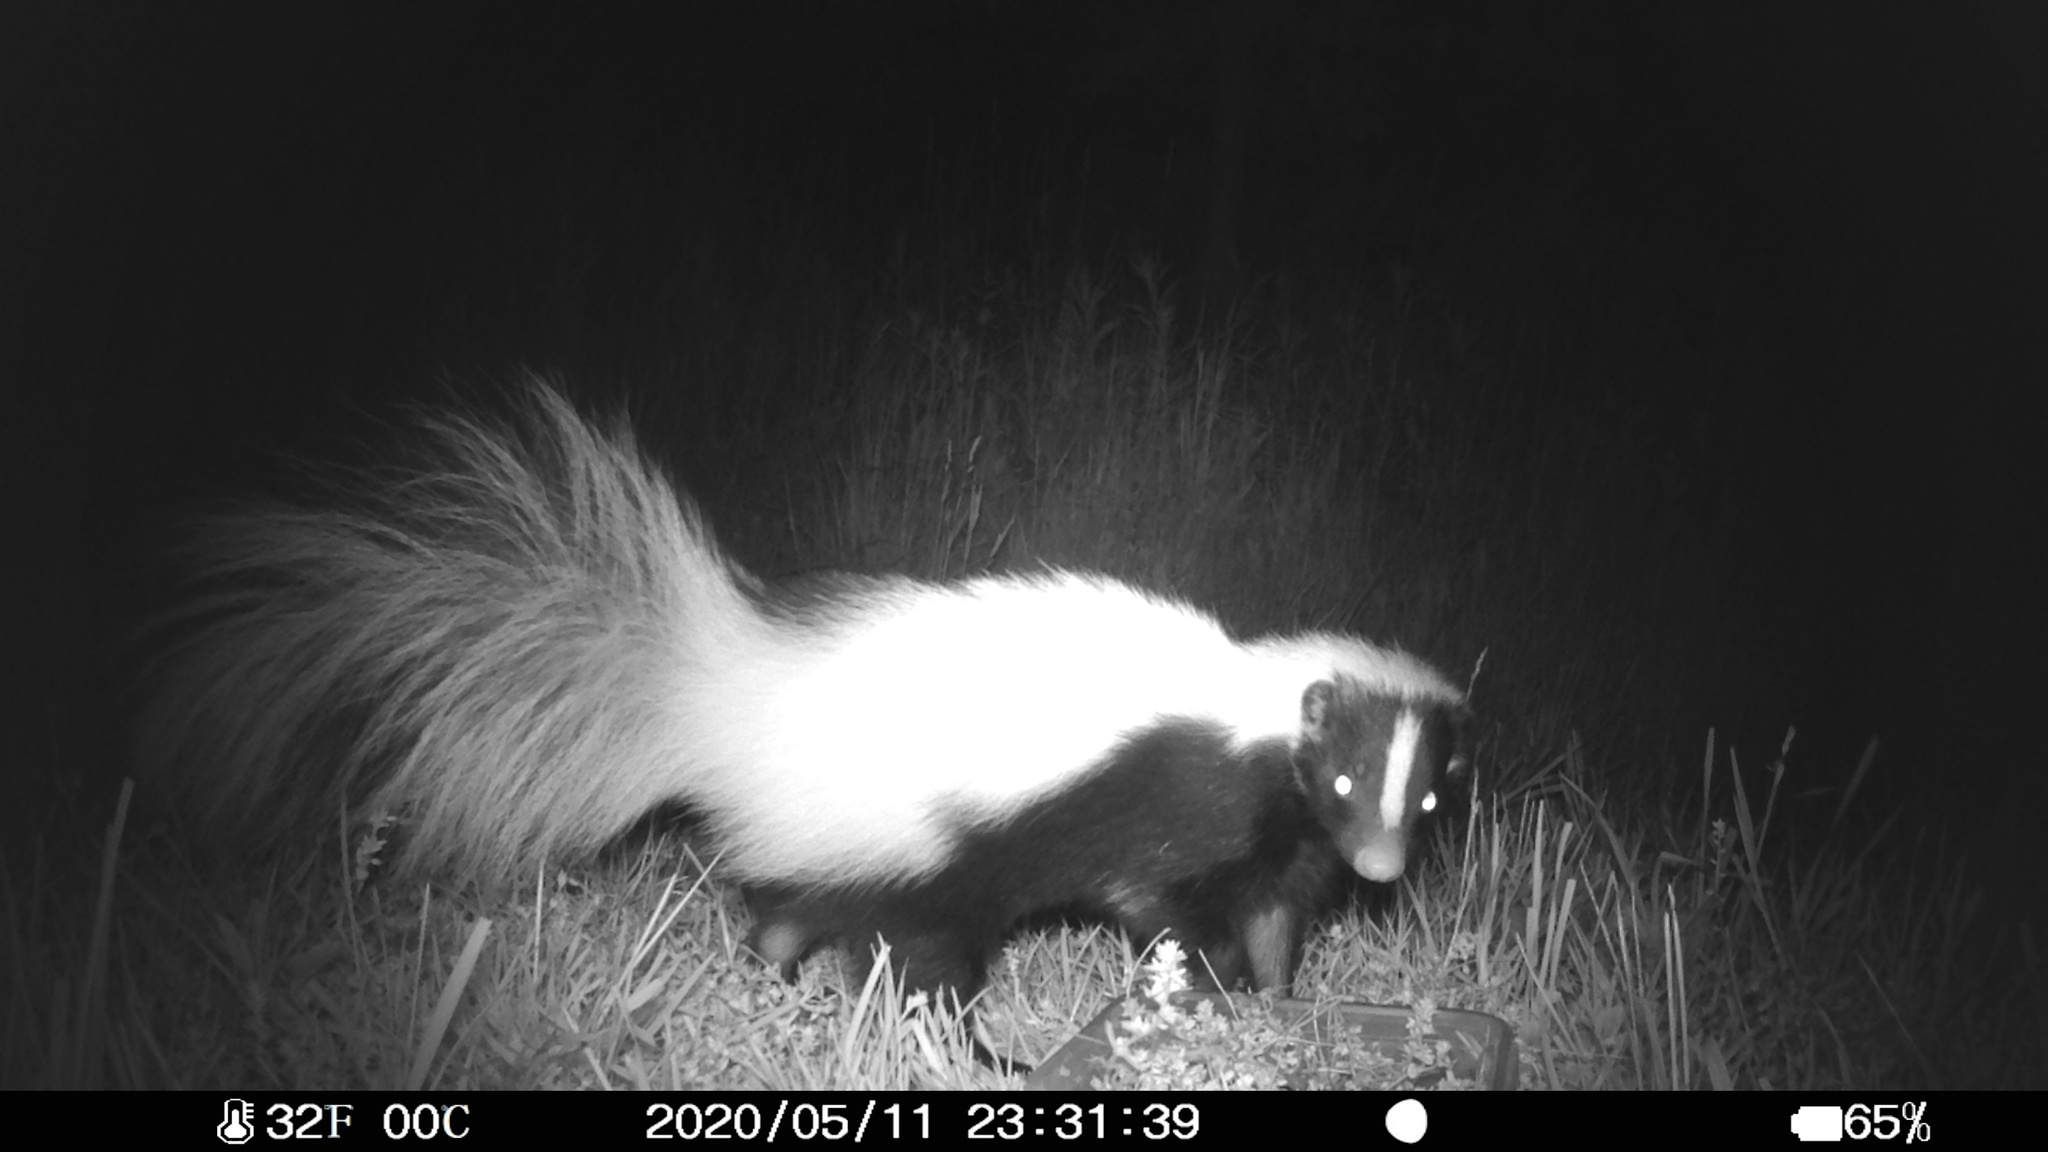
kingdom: Animalia
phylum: Chordata
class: Mammalia
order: Carnivora
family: Mephitidae
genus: Mephitis
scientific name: Mephitis mephitis
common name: Striped skunk
